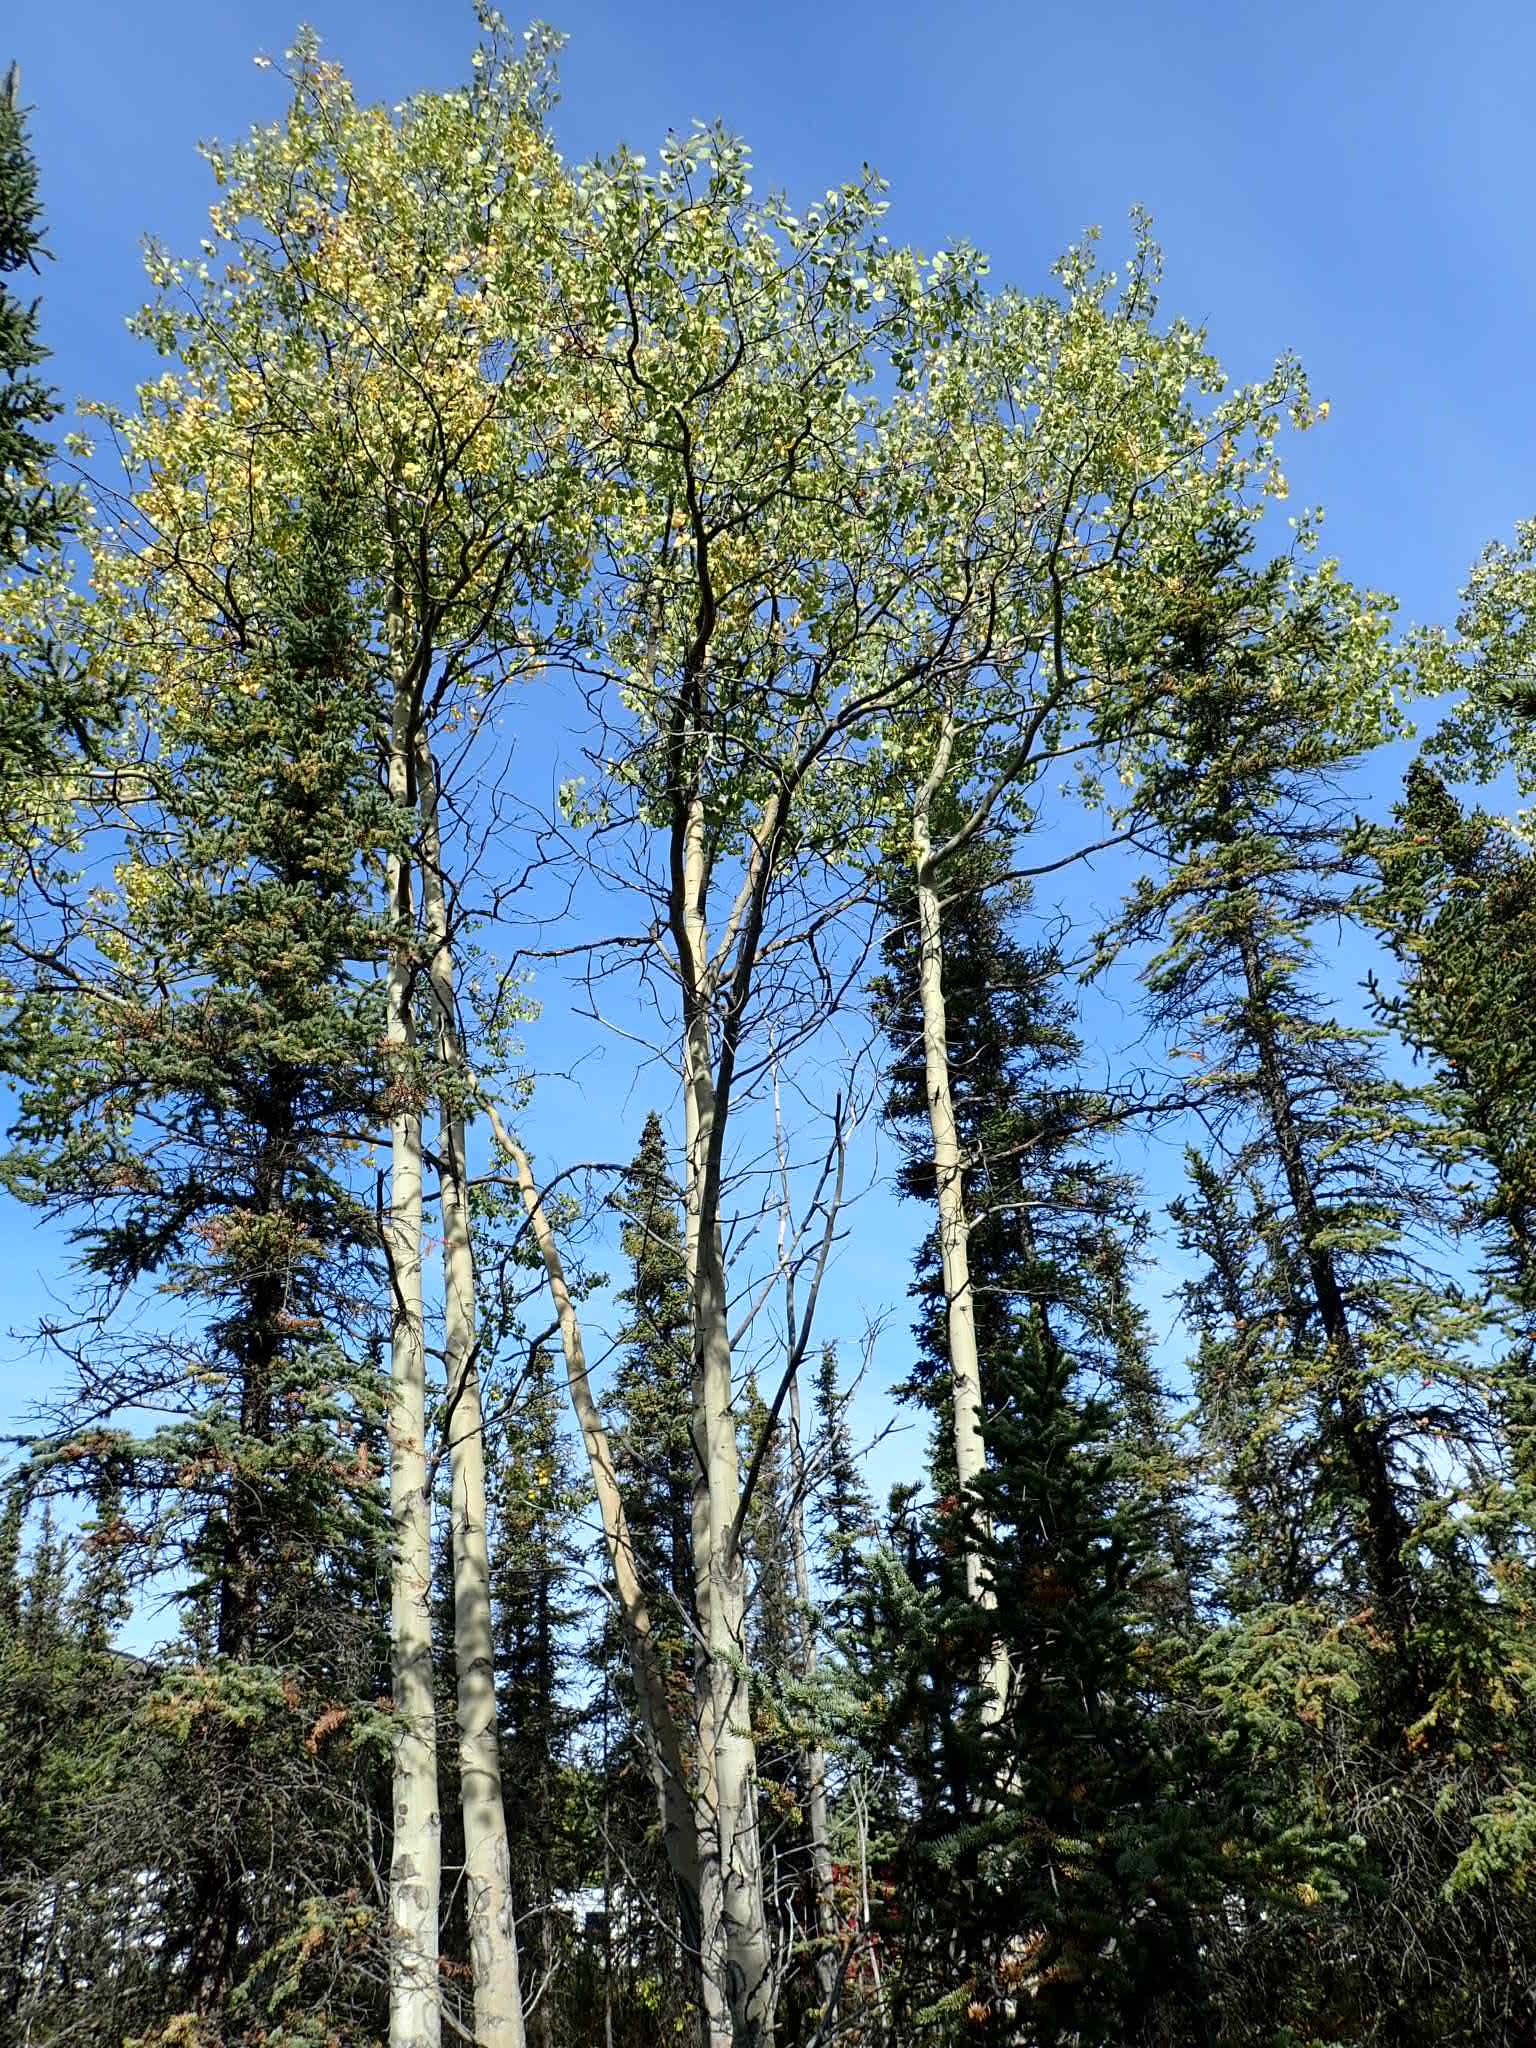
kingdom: Plantae
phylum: Tracheophyta
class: Magnoliopsida
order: Malpighiales
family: Salicaceae
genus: Populus
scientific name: Populus tremuloides
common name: Quaking aspen
